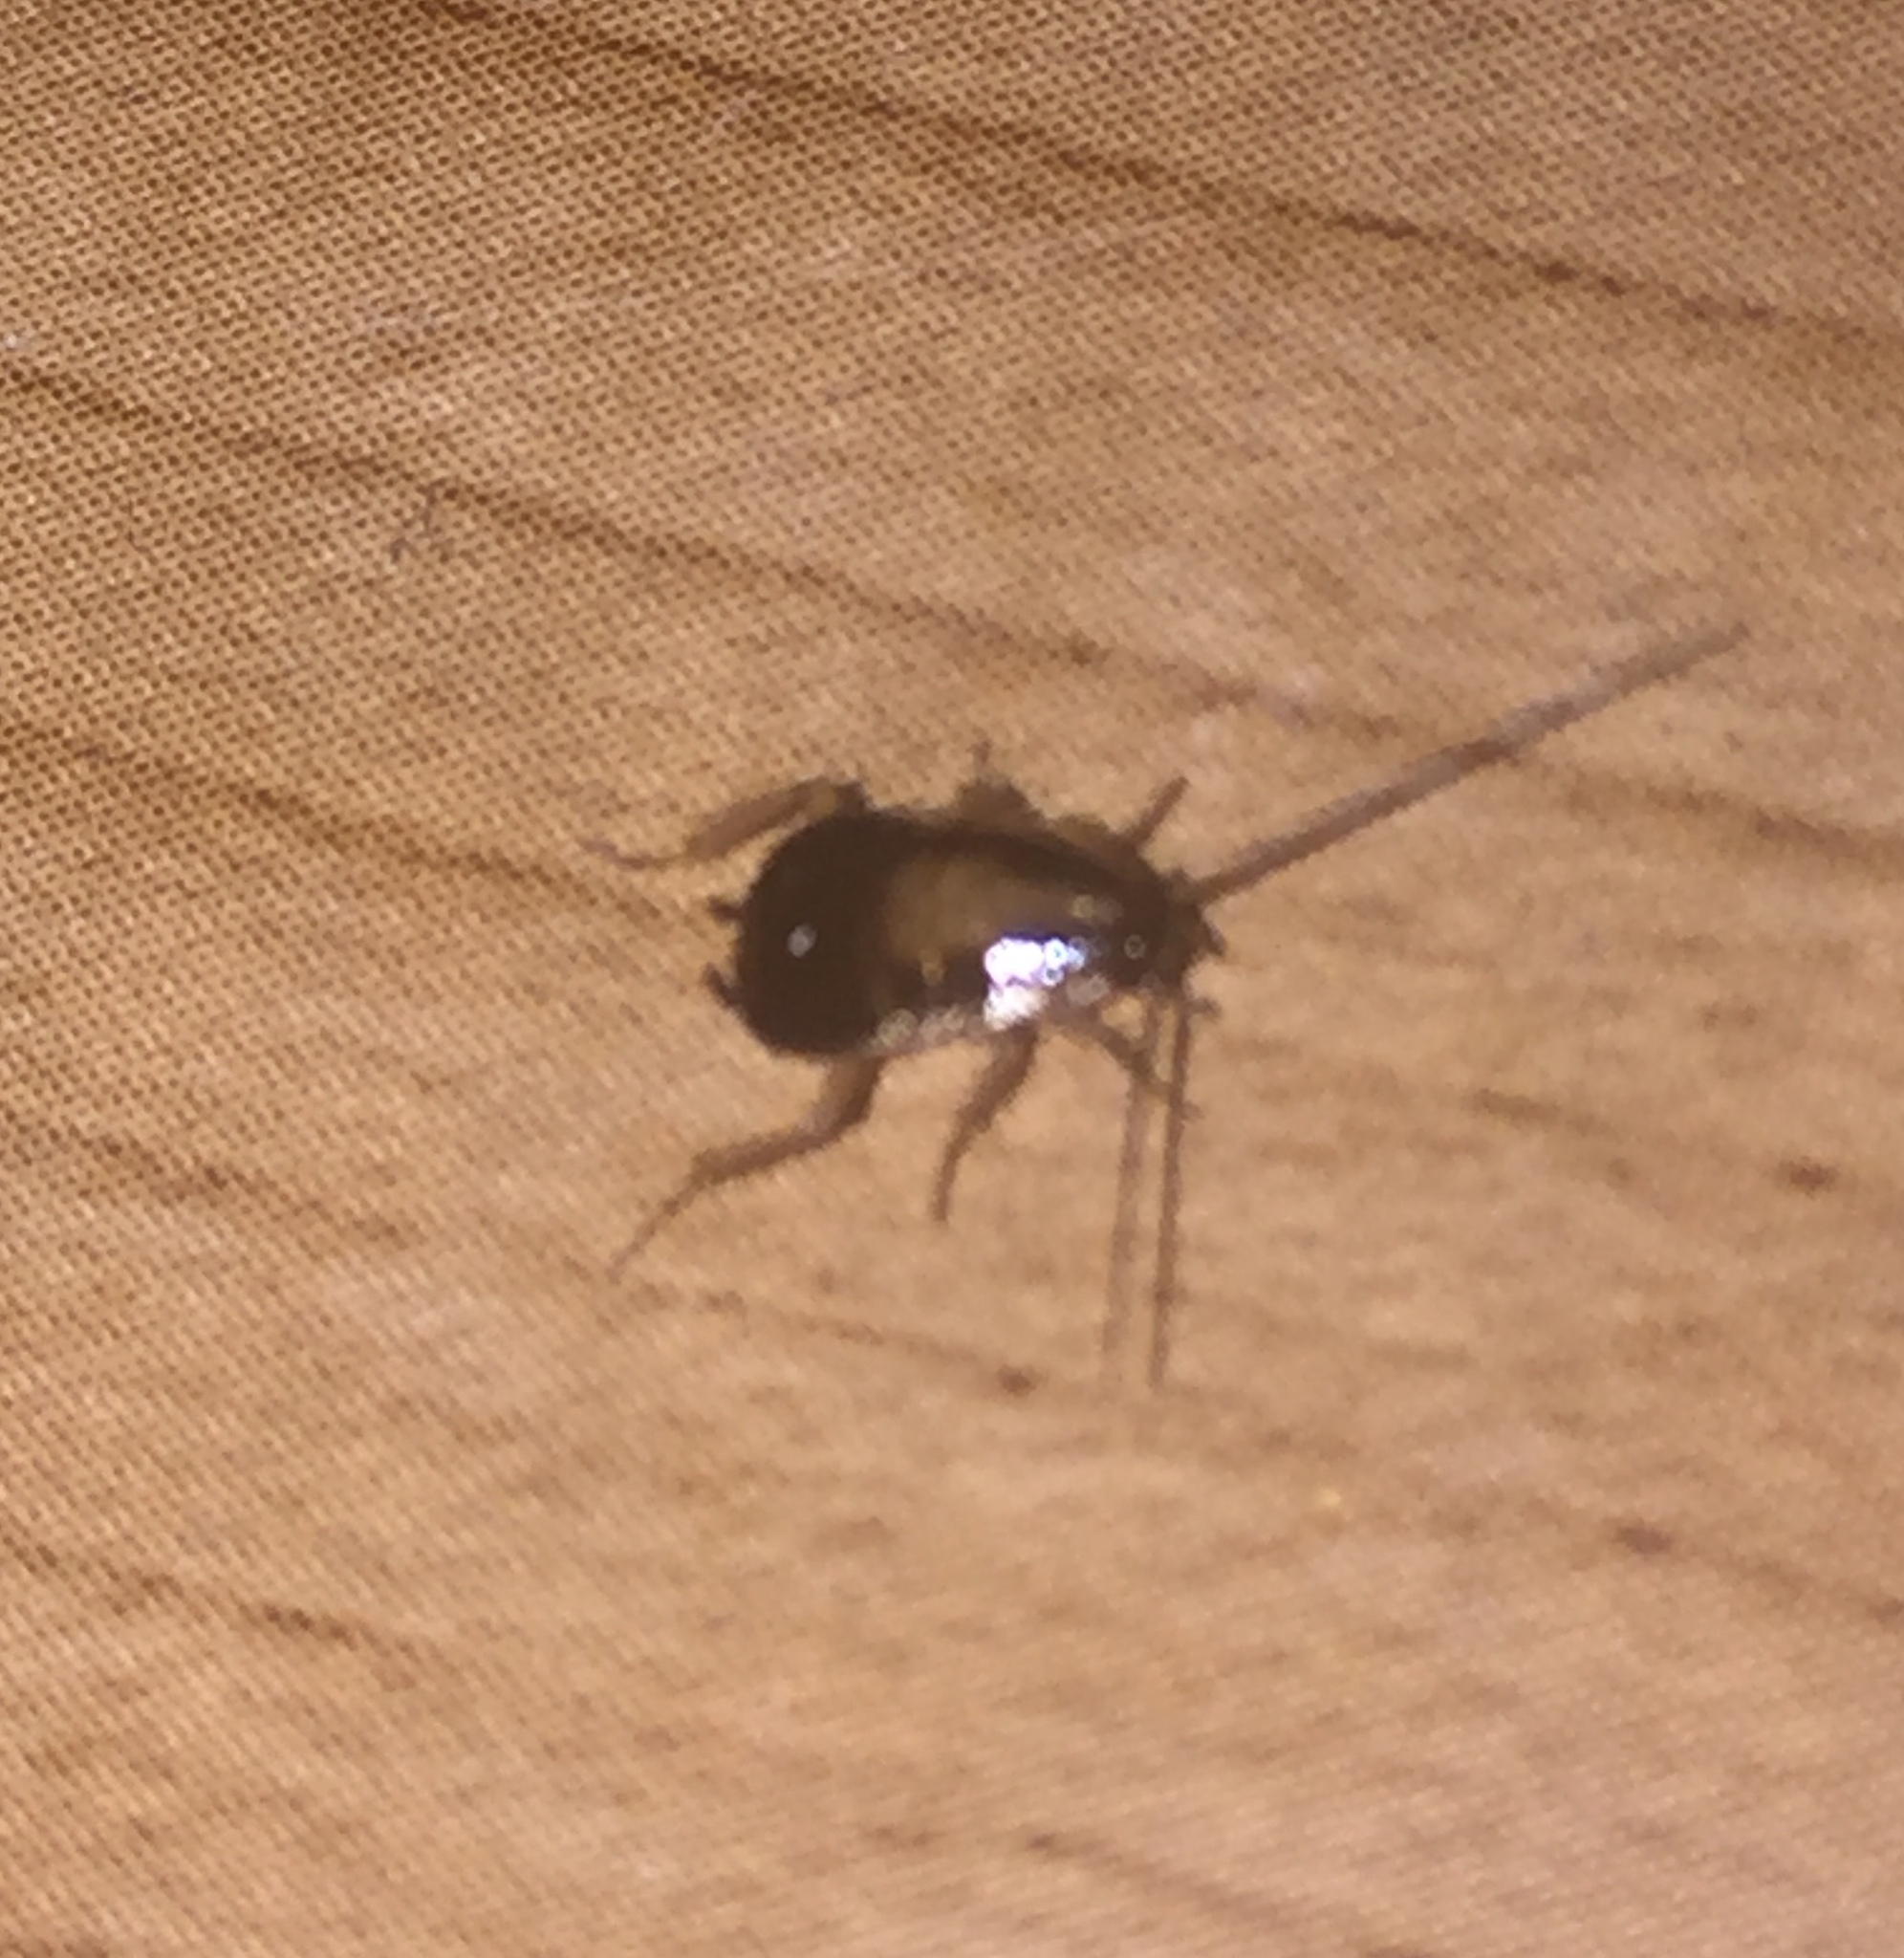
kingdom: Animalia
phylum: Arthropoda
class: Insecta
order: Blattodea
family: Ectobiidae
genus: Blattella
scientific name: Blattella germanica
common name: German cockroach
